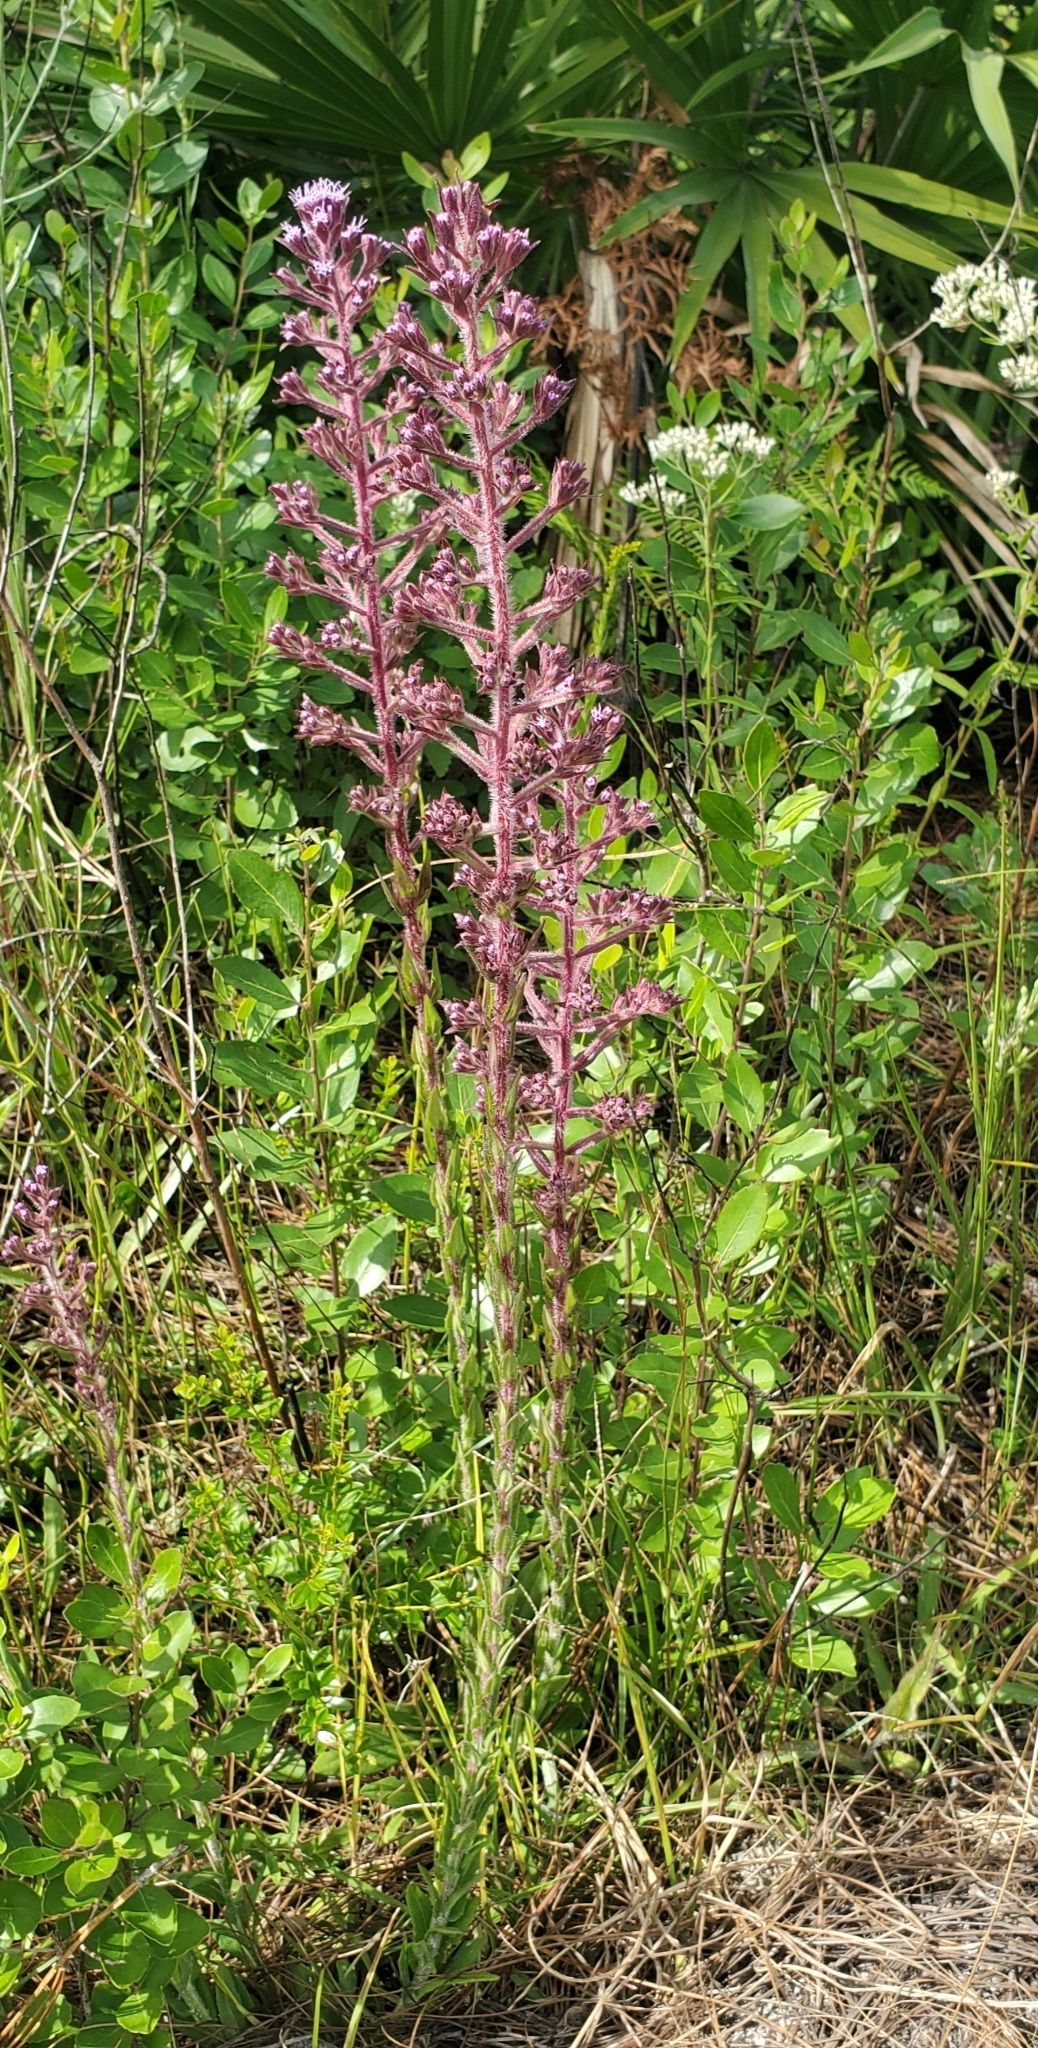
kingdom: Plantae
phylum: Tracheophyta
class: Magnoliopsida
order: Asterales
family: Asteraceae
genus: Carphephorus
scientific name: Carphephorus paniculatus
